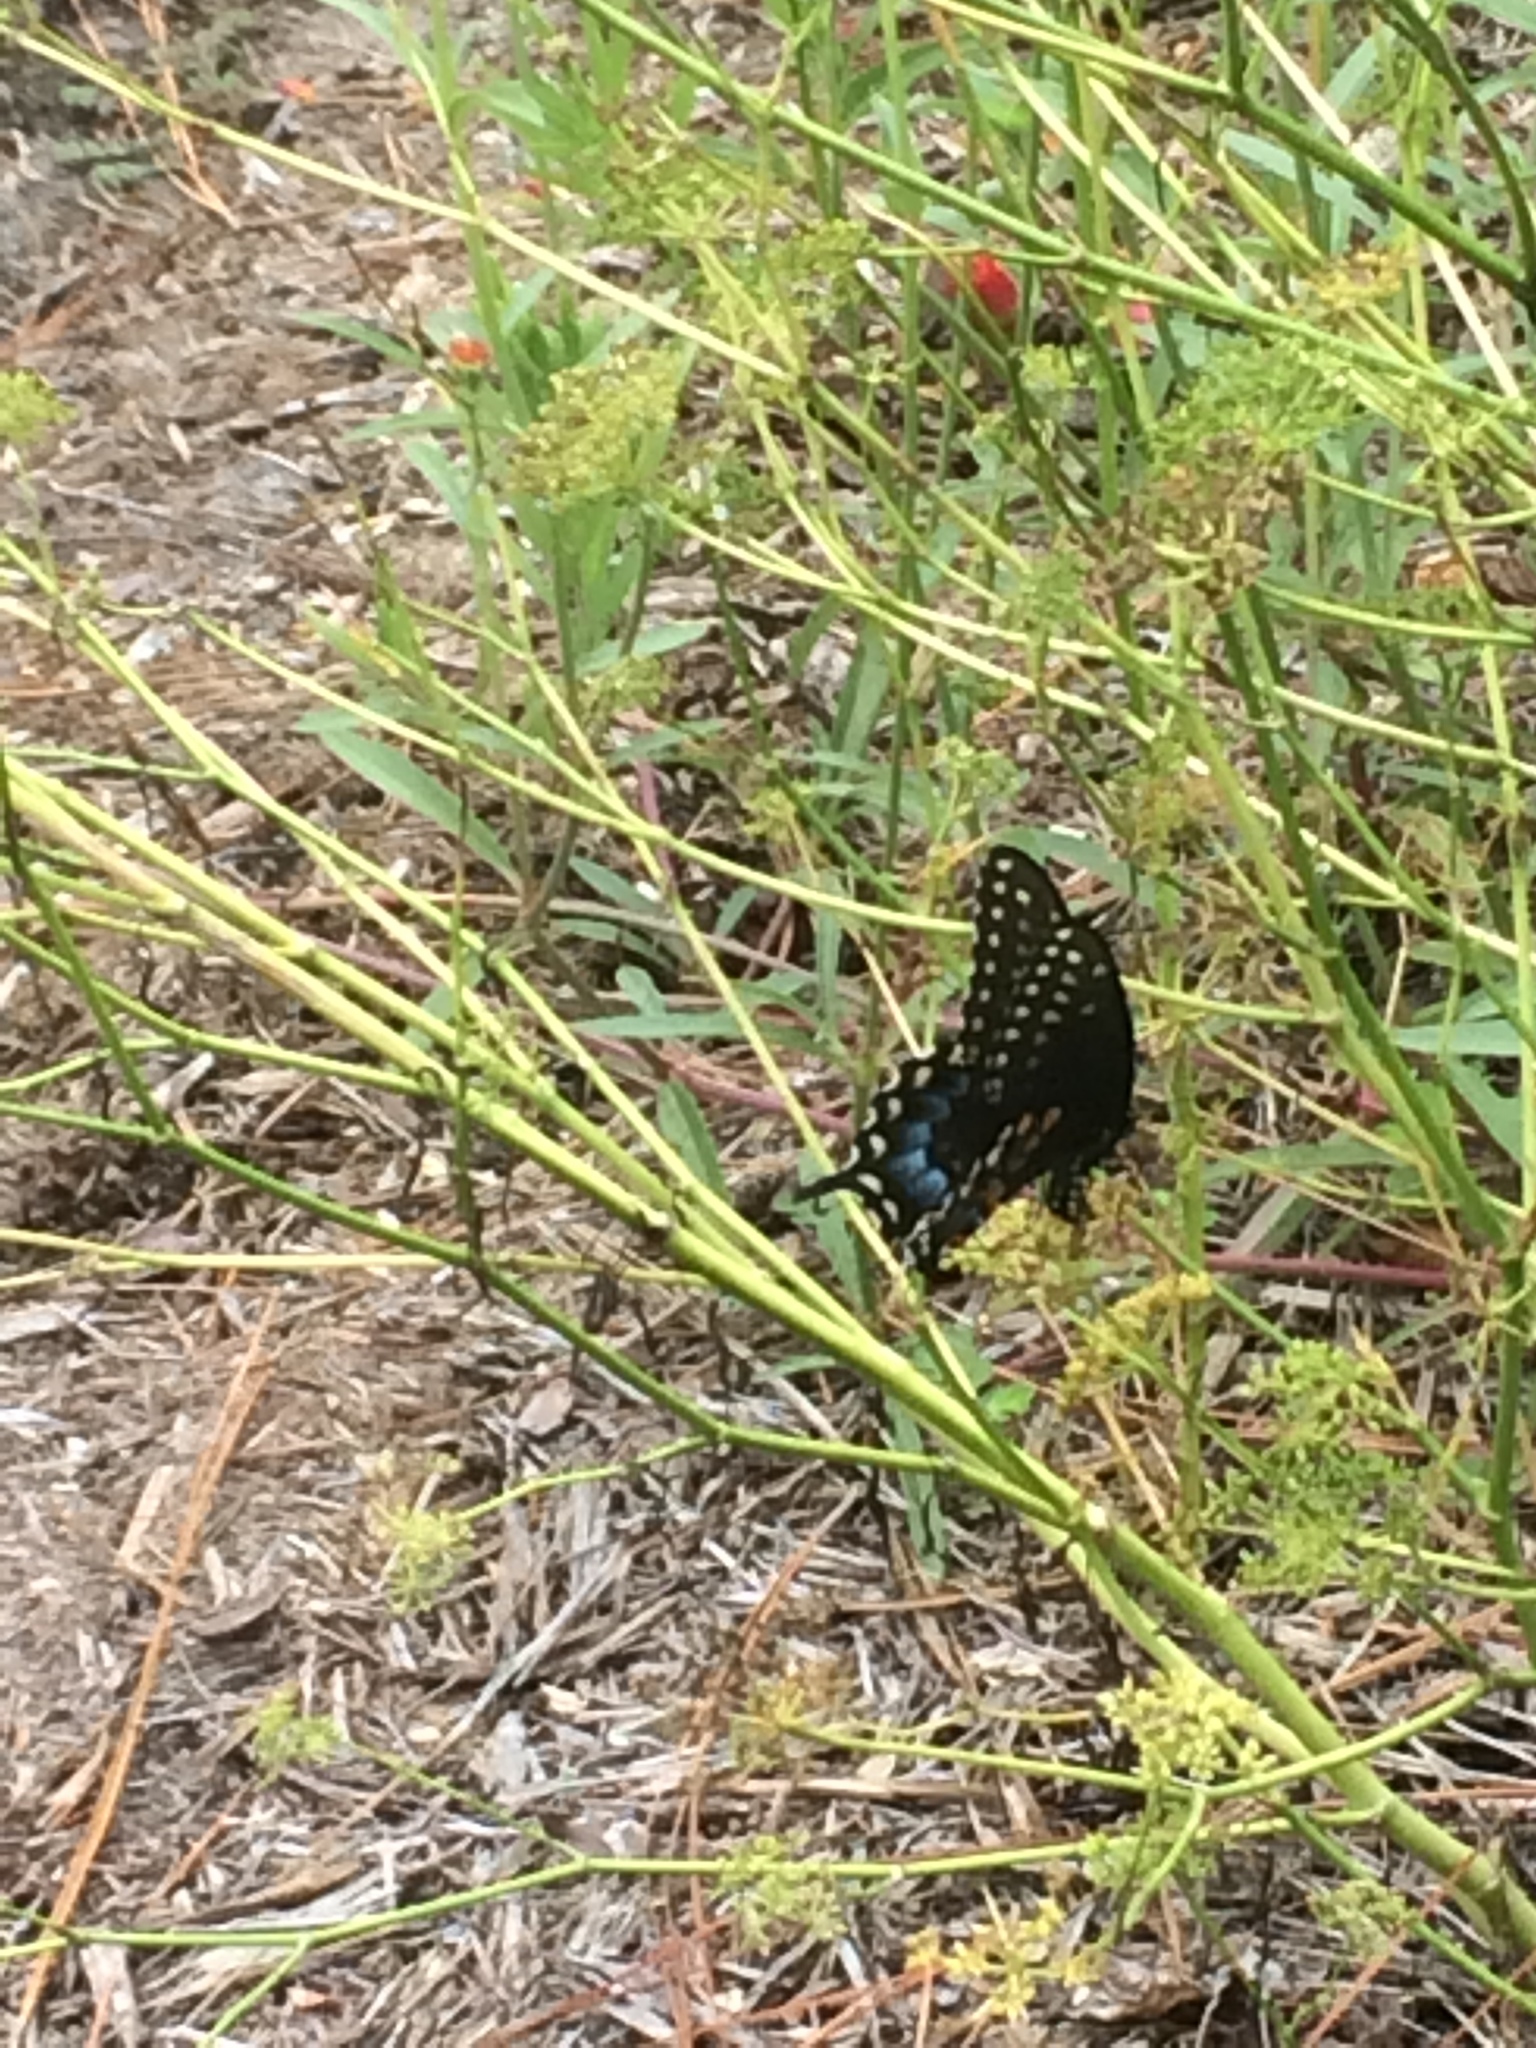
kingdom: Animalia
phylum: Arthropoda
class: Insecta
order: Lepidoptera
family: Papilionidae
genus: Papilio
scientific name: Papilio polyxenes
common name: Black swallowtail
